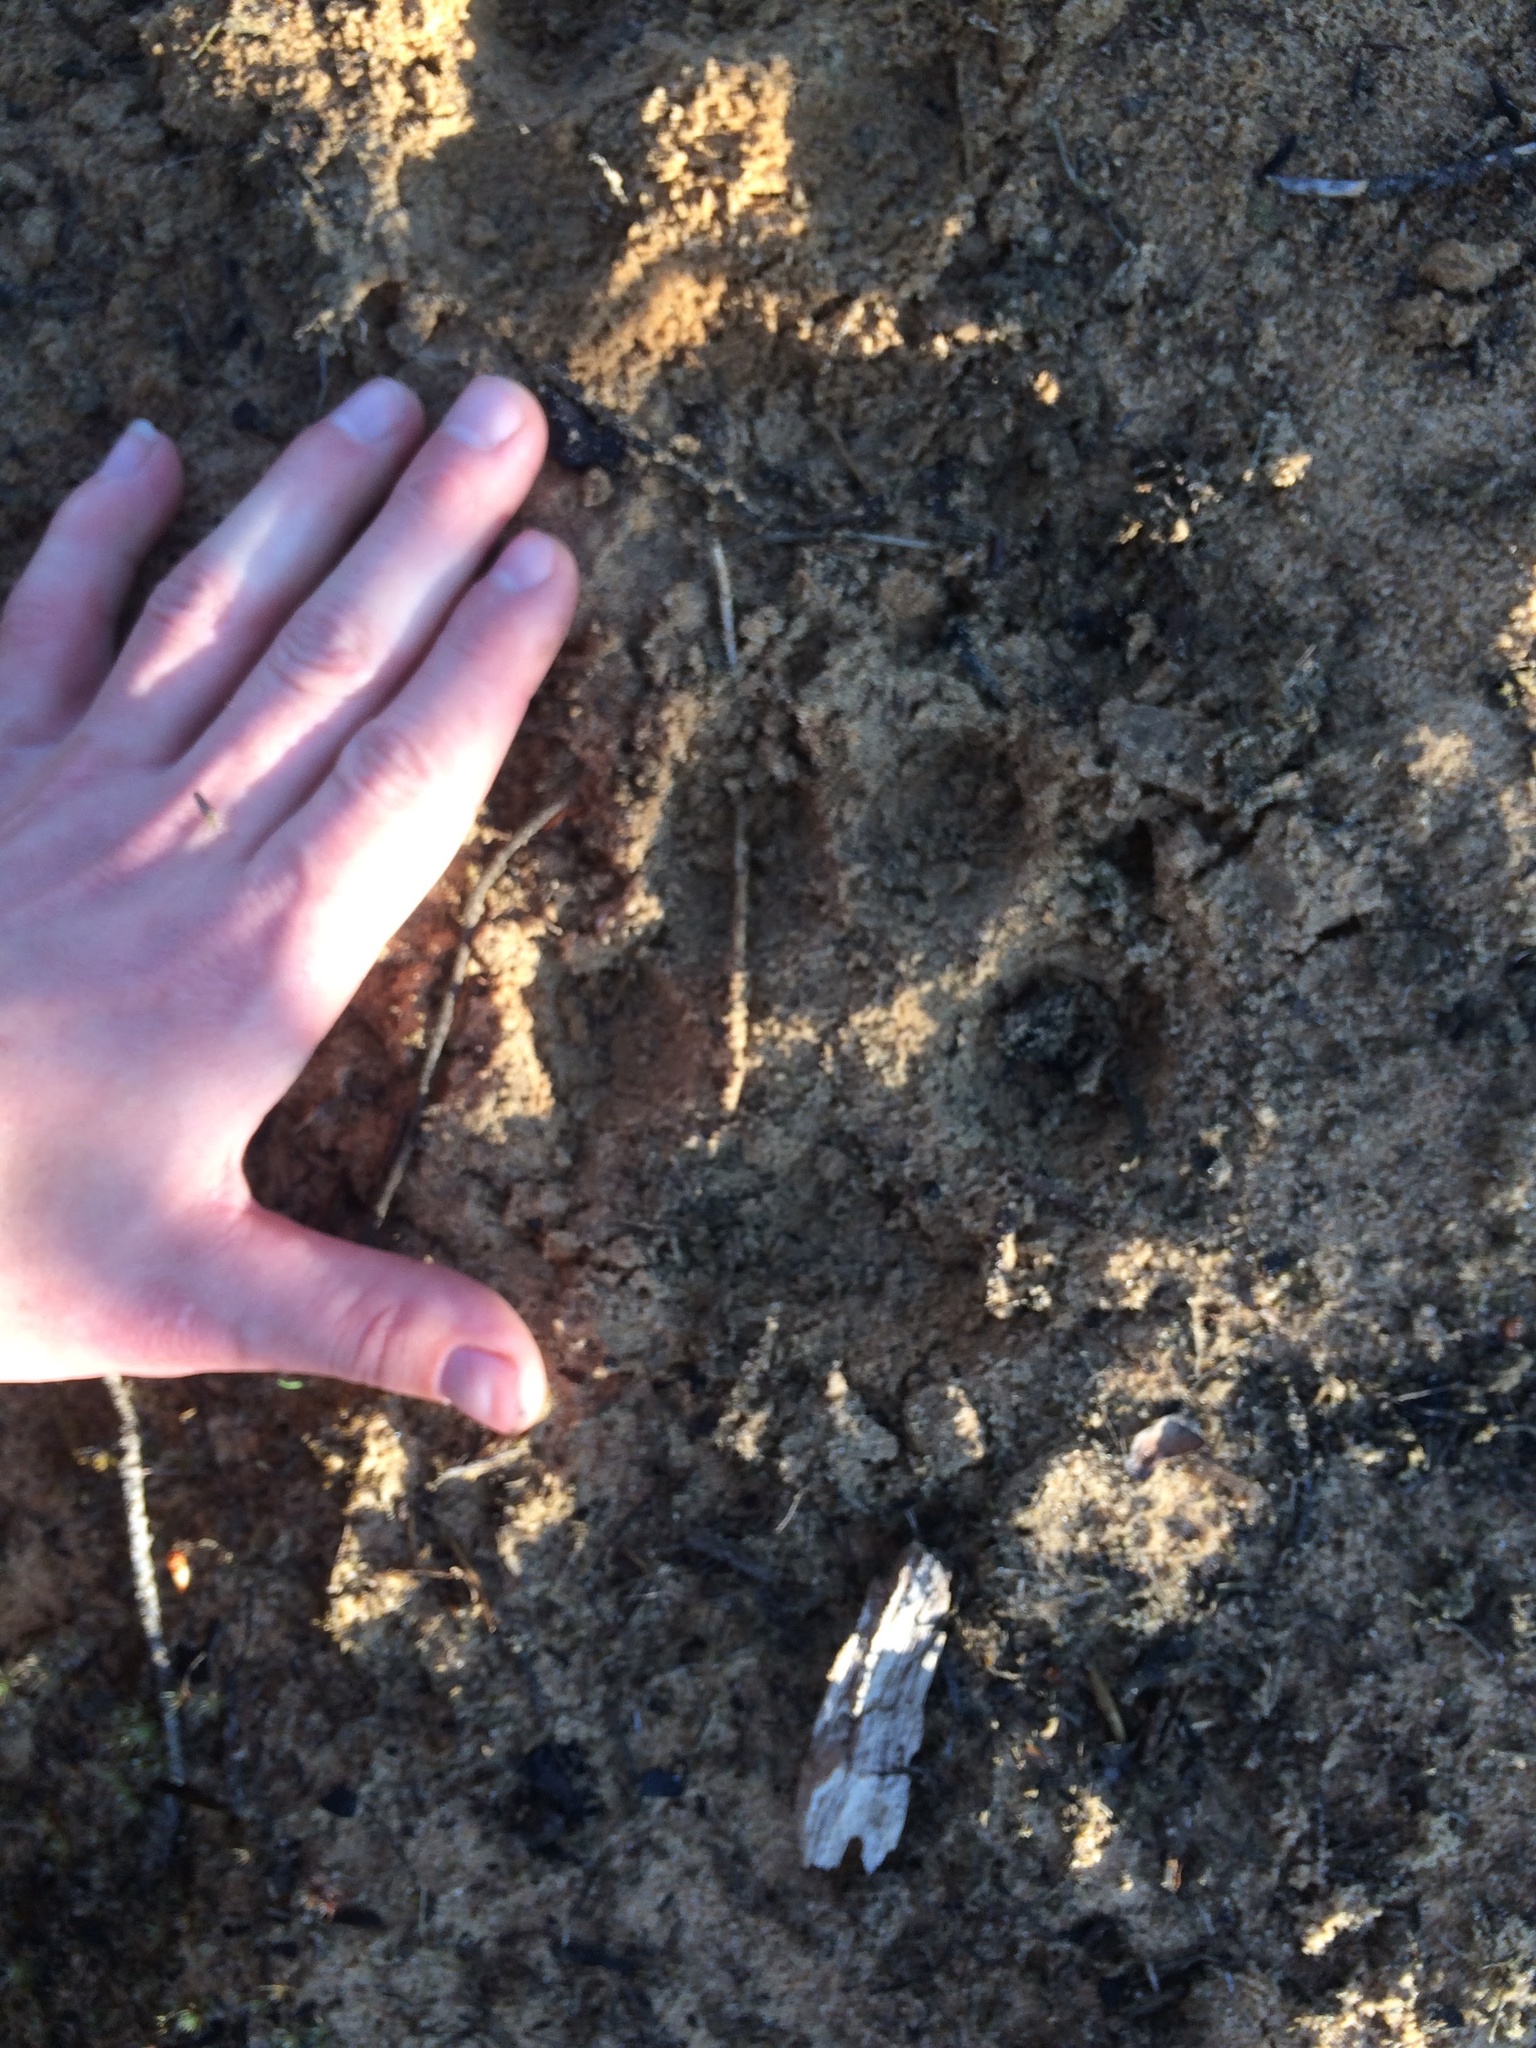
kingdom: Animalia
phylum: Chordata
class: Mammalia
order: Carnivora
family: Canidae
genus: Canis
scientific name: Canis lupus
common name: Gray wolf
